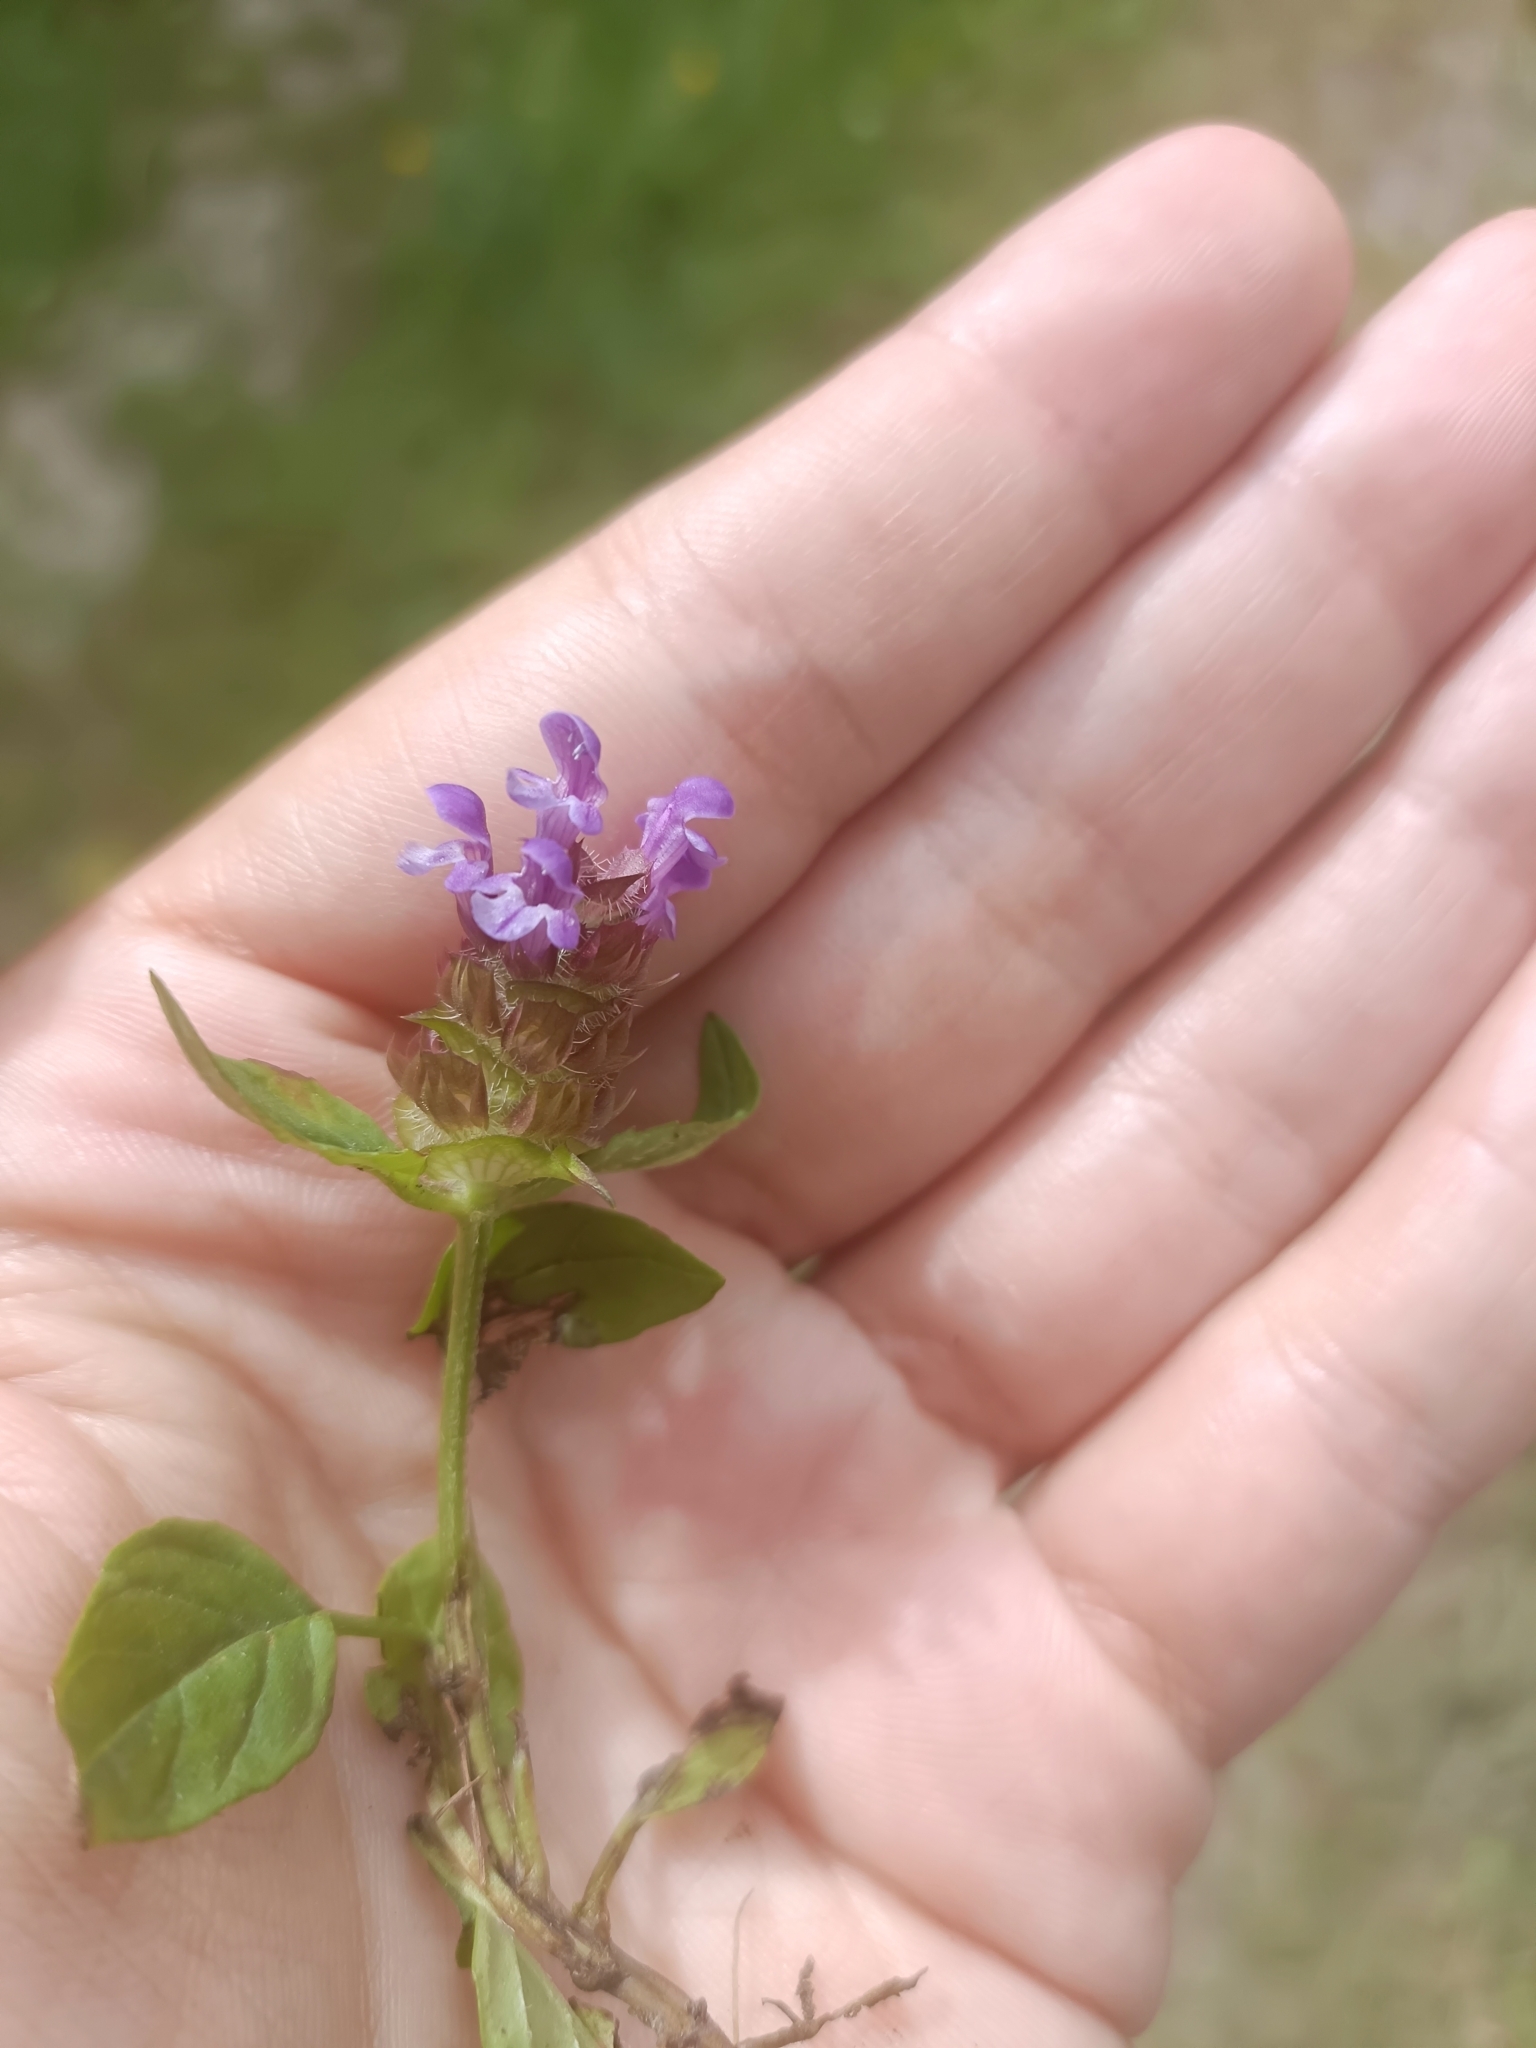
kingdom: Plantae
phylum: Tracheophyta
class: Magnoliopsida
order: Lamiales
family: Lamiaceae
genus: Prunella
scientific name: Prunella vulgaris
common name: Heal-all
